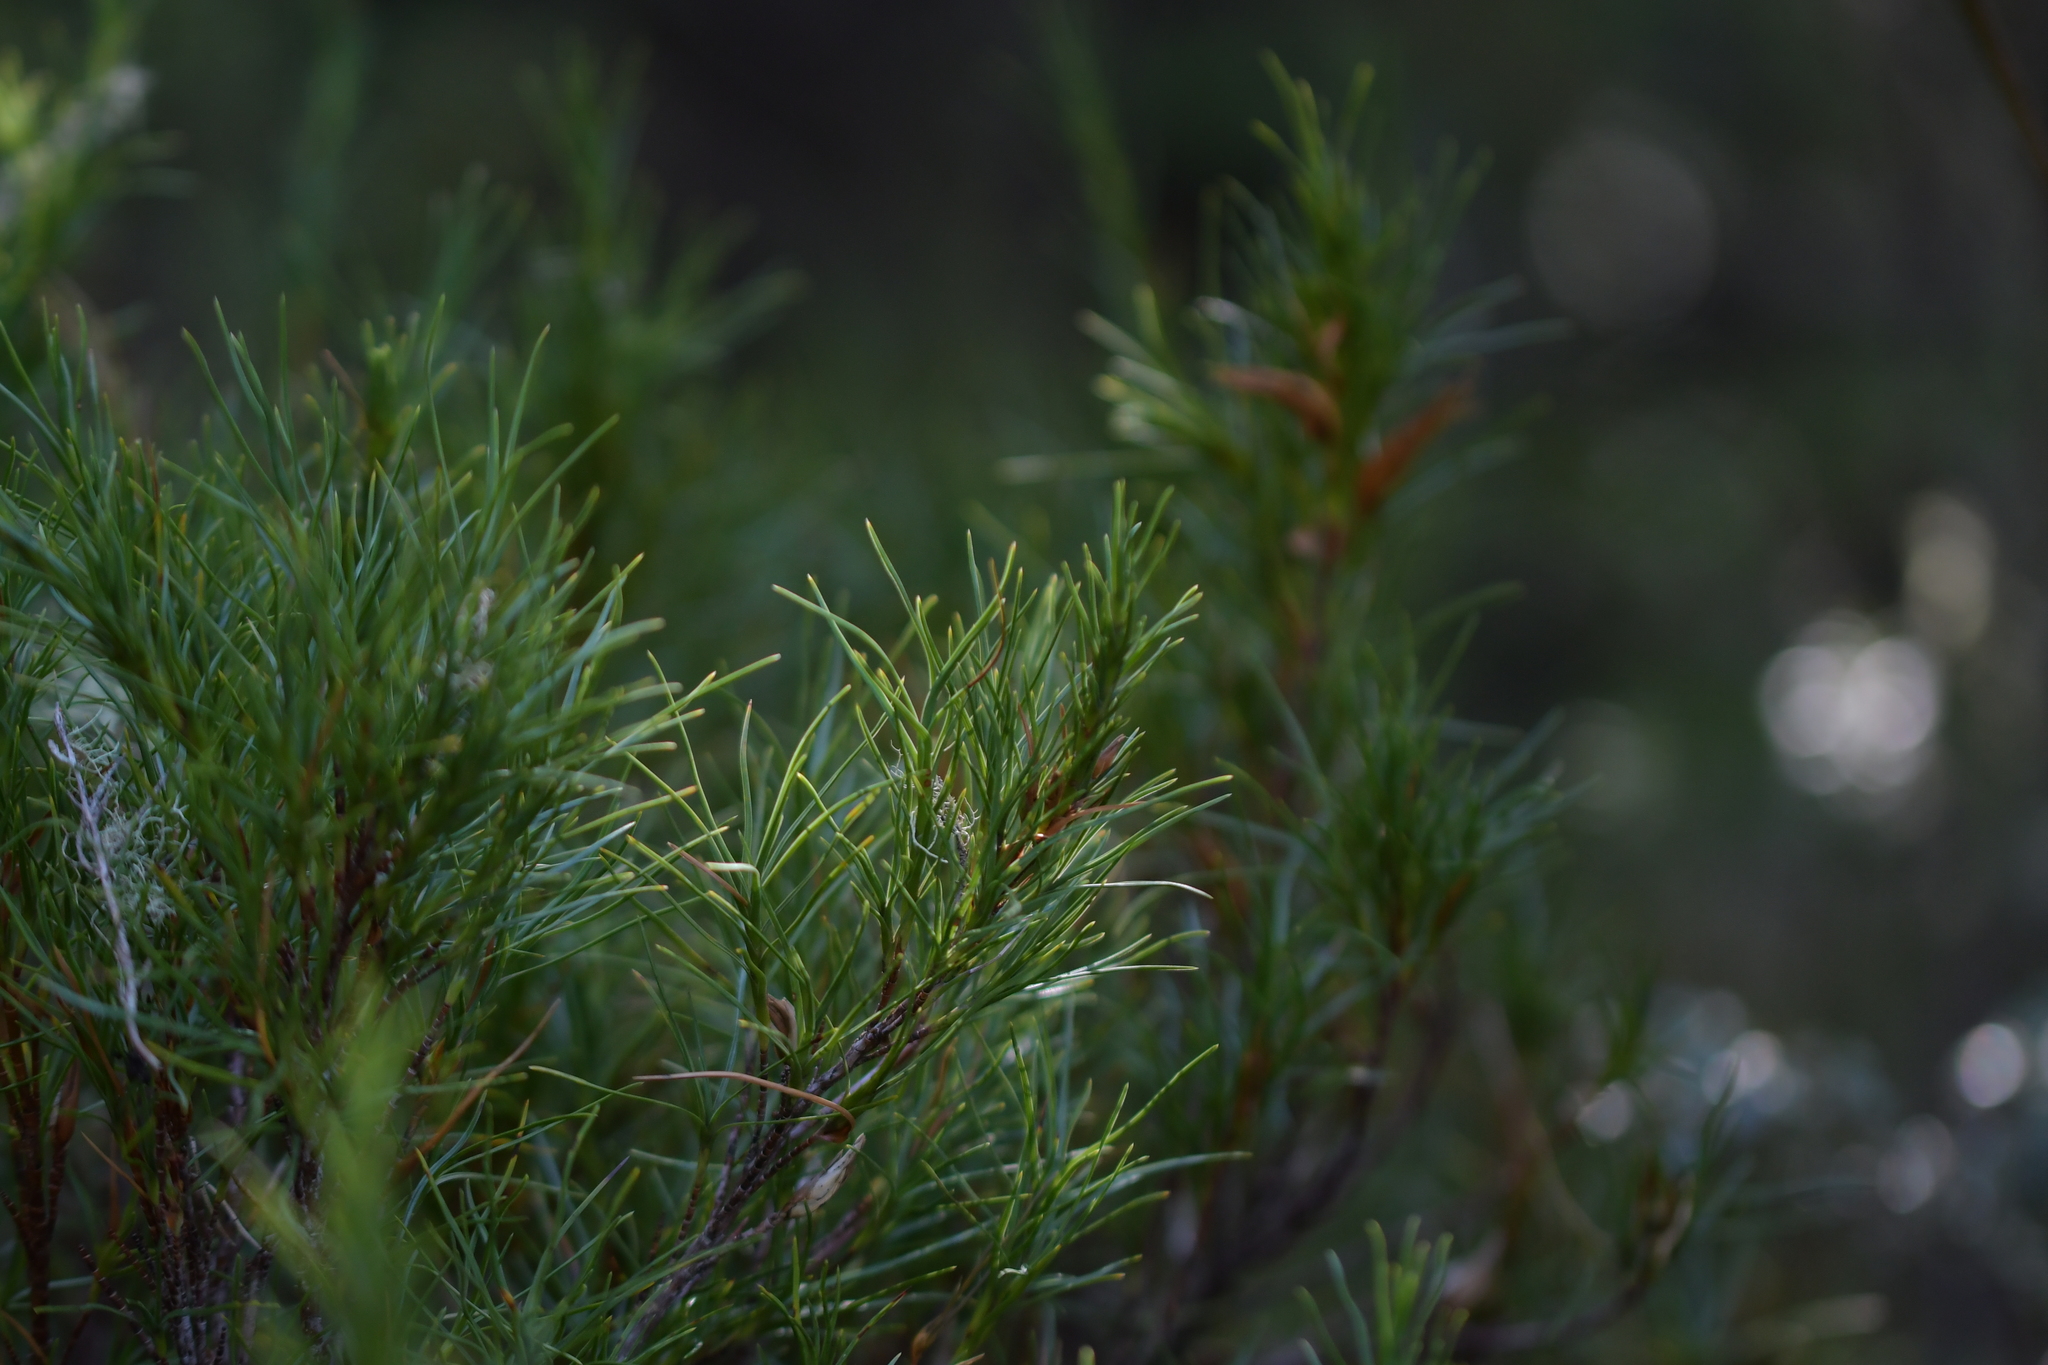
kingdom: Plantae
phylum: Tracheophyta
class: Magnoliopsida
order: Ericales
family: Ericaceae
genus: Dracophyllum
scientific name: Dracophyllum rosmarinifolium
